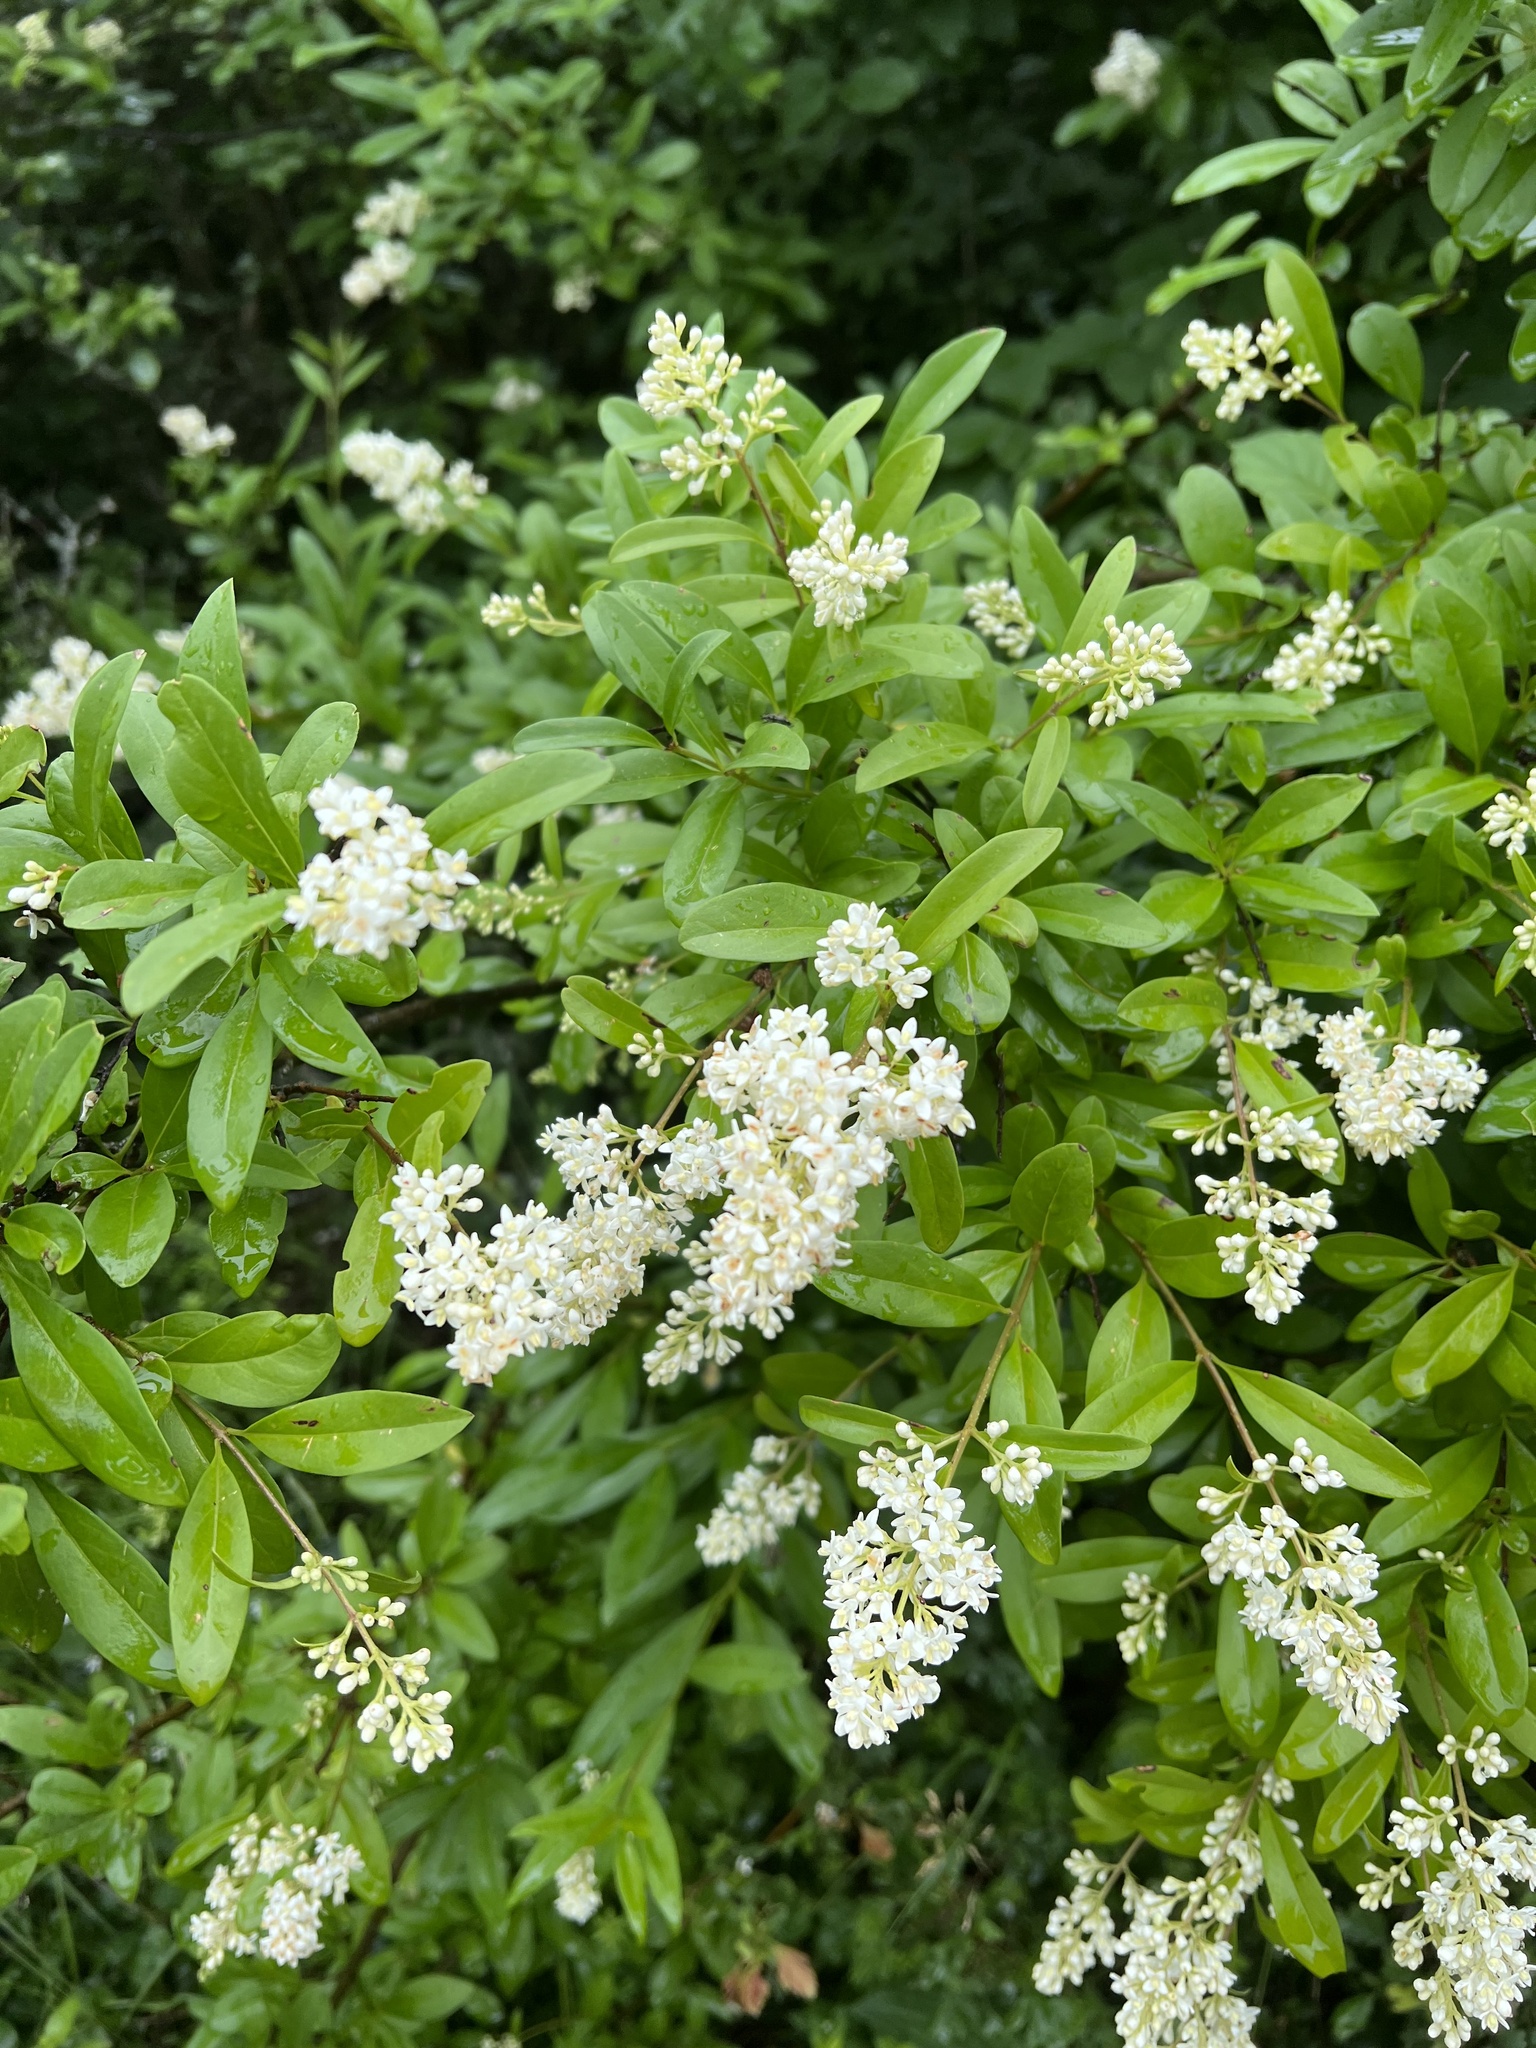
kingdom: Plantae
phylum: Tracheophyta
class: Magnoliopsida
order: Lamiales
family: Oleaceae
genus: Ligustrum
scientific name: Ligustrum vulgare
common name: Wild privet
